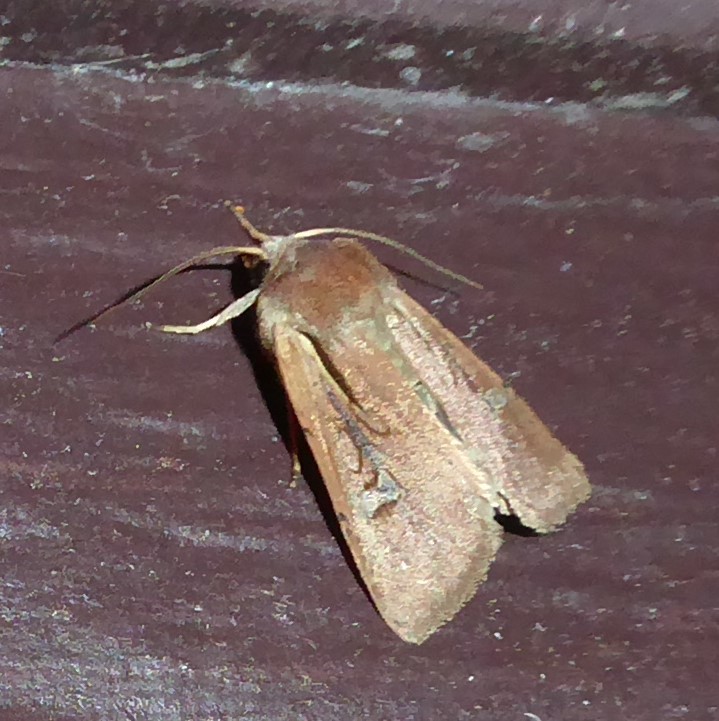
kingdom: Animalia
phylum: Arthropoda
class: Insecta
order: Lepidoptera
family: Noctuidae
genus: Ichneutica
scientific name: Ichneutica atristriga
